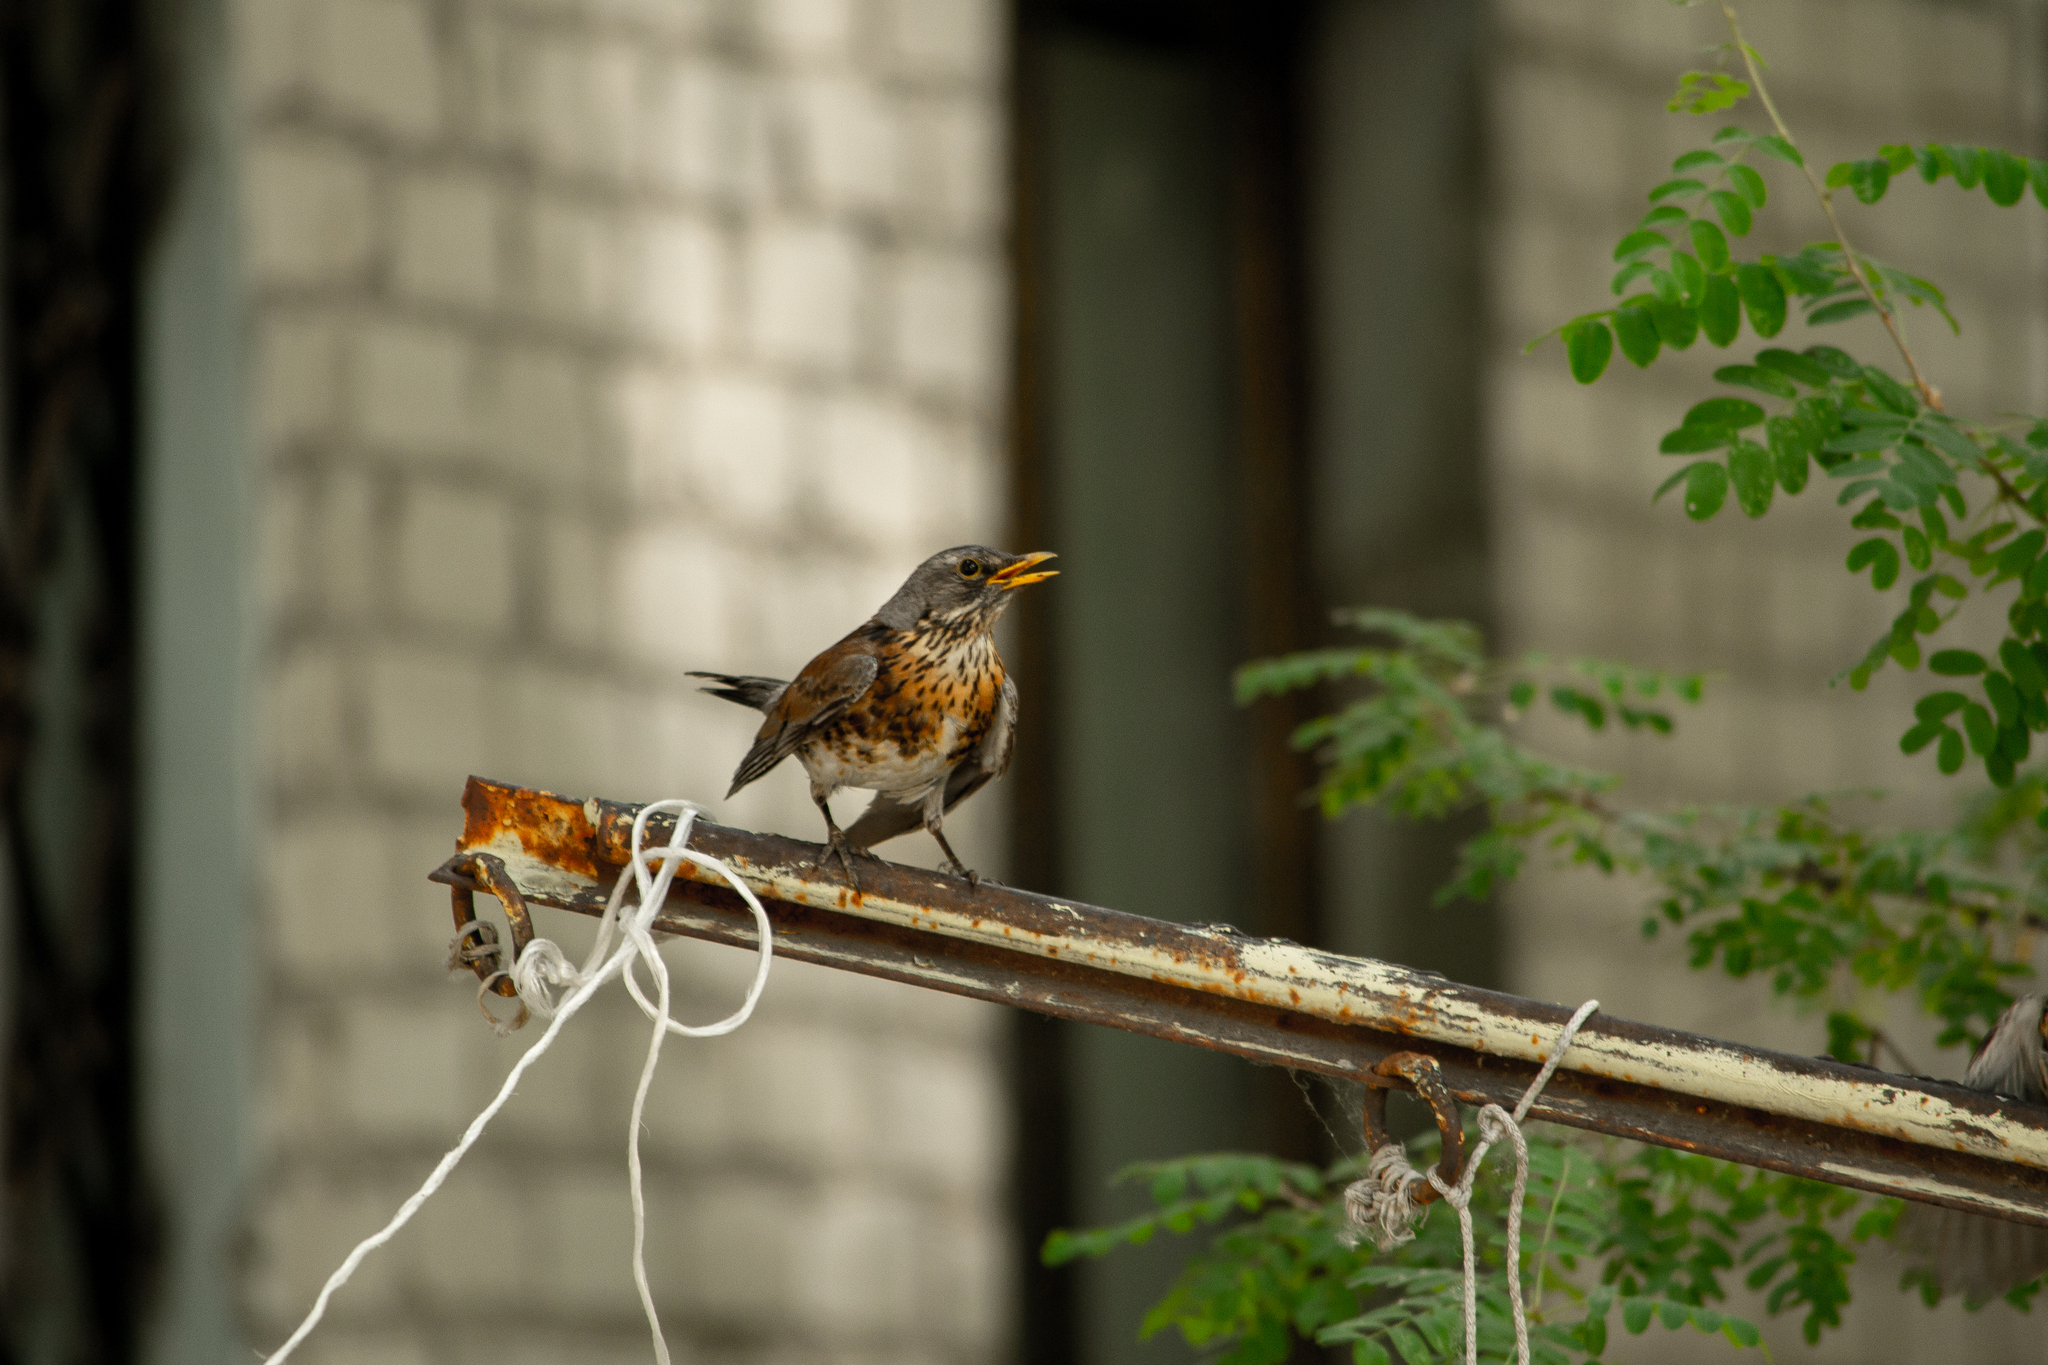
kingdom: Animalia
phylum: Chordata
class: Aves
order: Passeriformes
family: Turdidae
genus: Turdus
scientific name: Turdus pilaris
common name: Fieldfare
